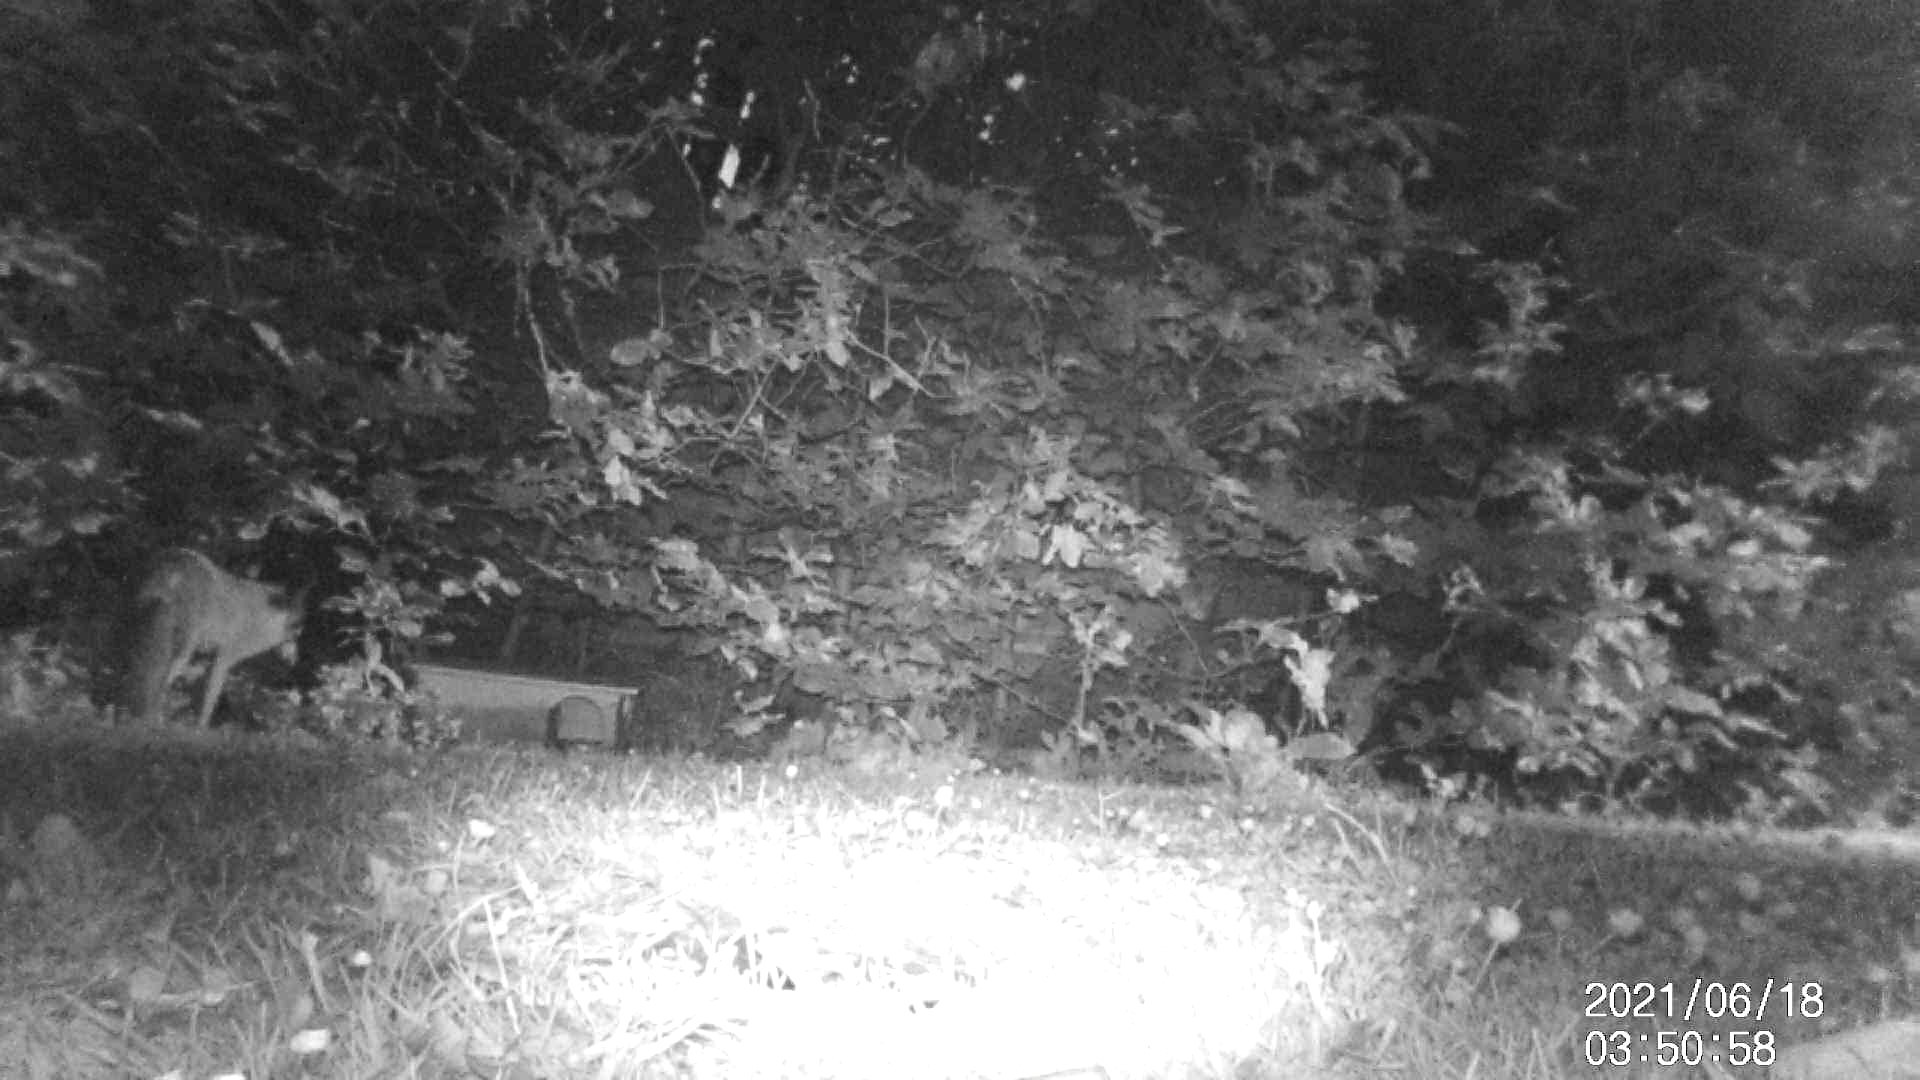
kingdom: Animalia
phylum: Chordata
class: Mammalia
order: Carnivora
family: Canidae
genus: Vulpes
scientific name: Vulpes vulpes
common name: Red fox
